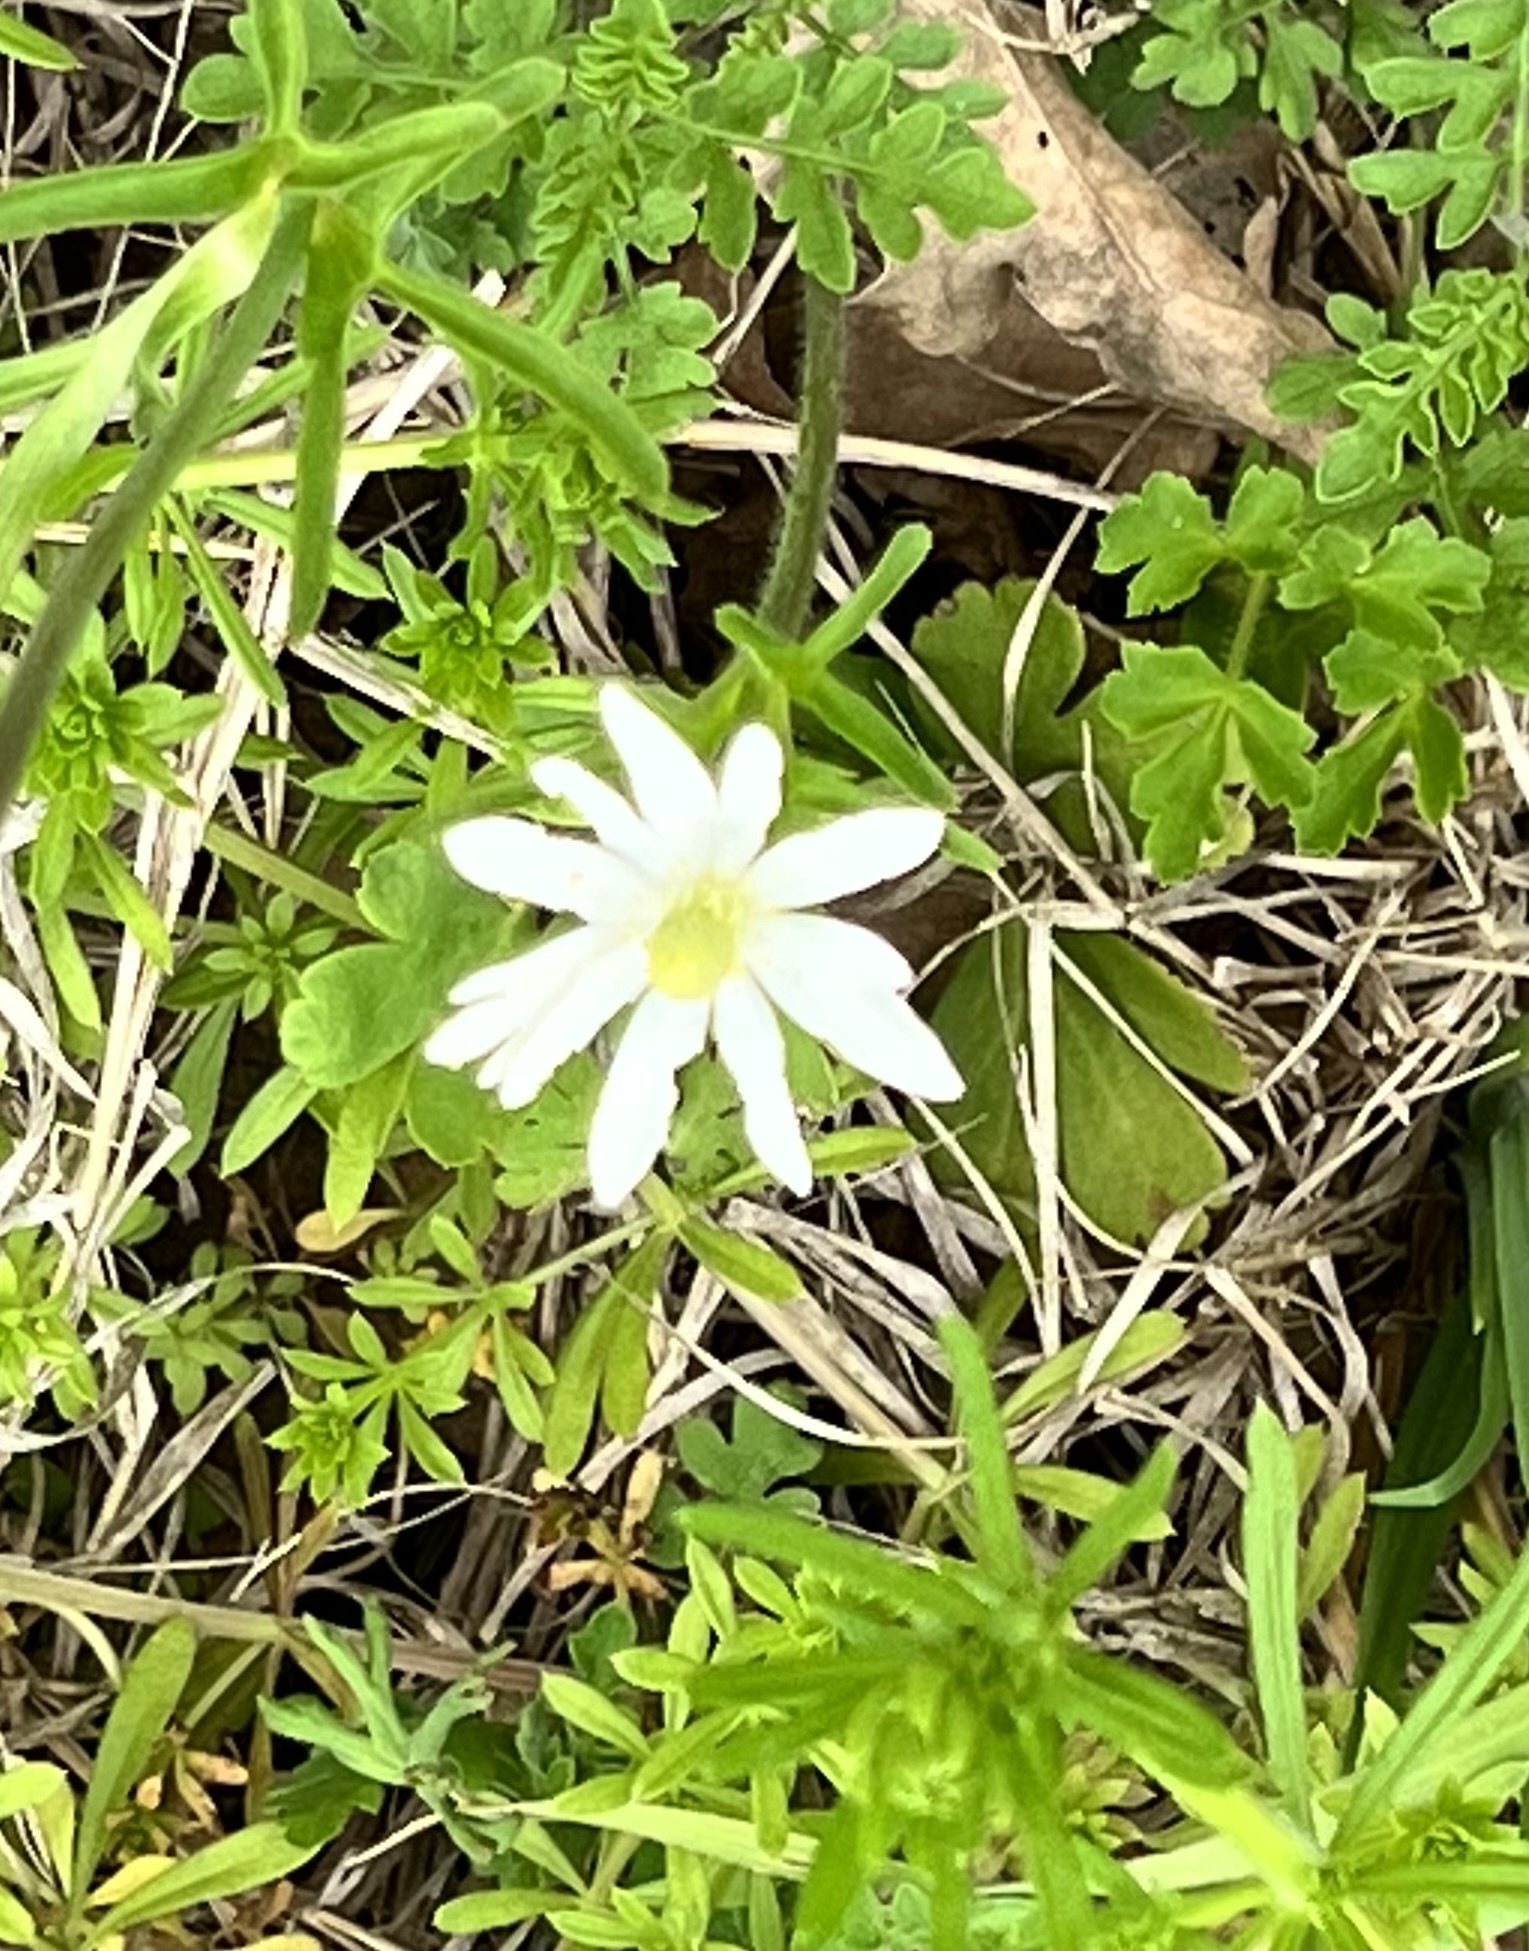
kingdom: Plantae
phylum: Tracheophyta
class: Magnoliopsida
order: Ranunculales
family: Ranunculaceae
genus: Anemone
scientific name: Anemone berlandieri
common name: Ten-petal anemone
